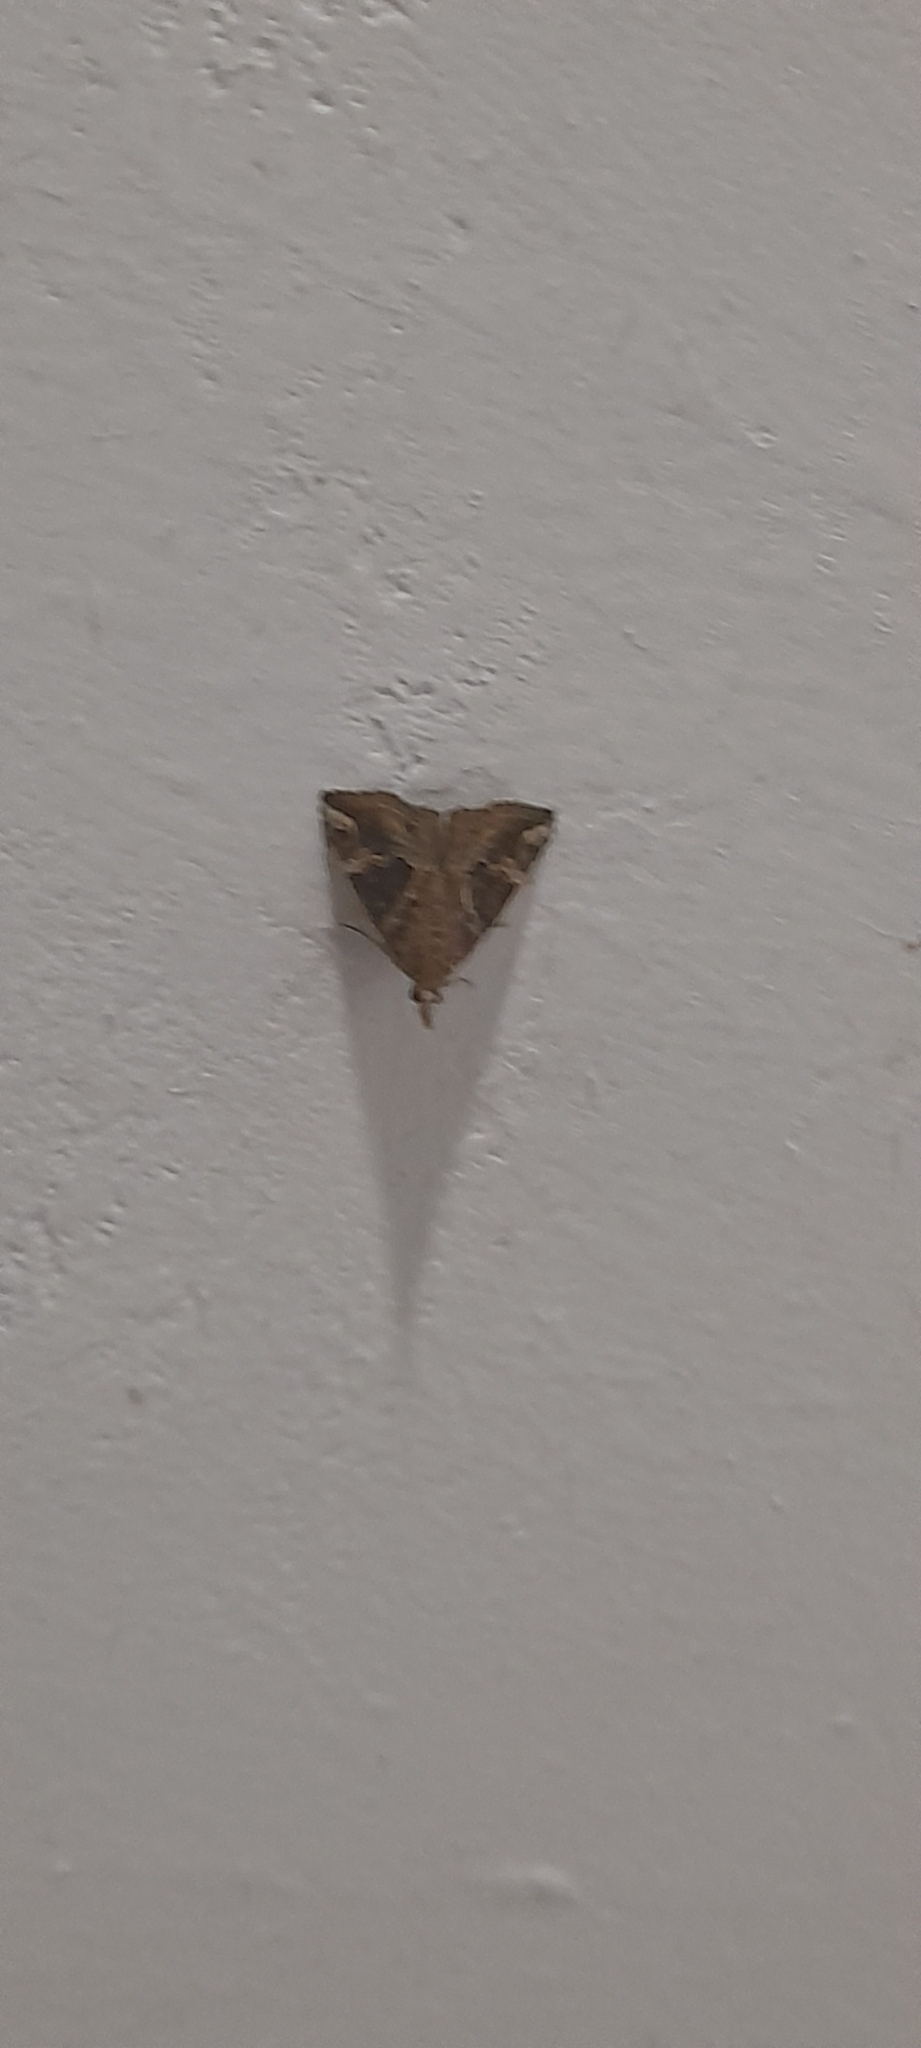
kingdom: Animalia
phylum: Arthropoda
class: Insecta
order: Lepidoptera
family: Erebidae
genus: Hypena
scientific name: Hypena commixtalis
